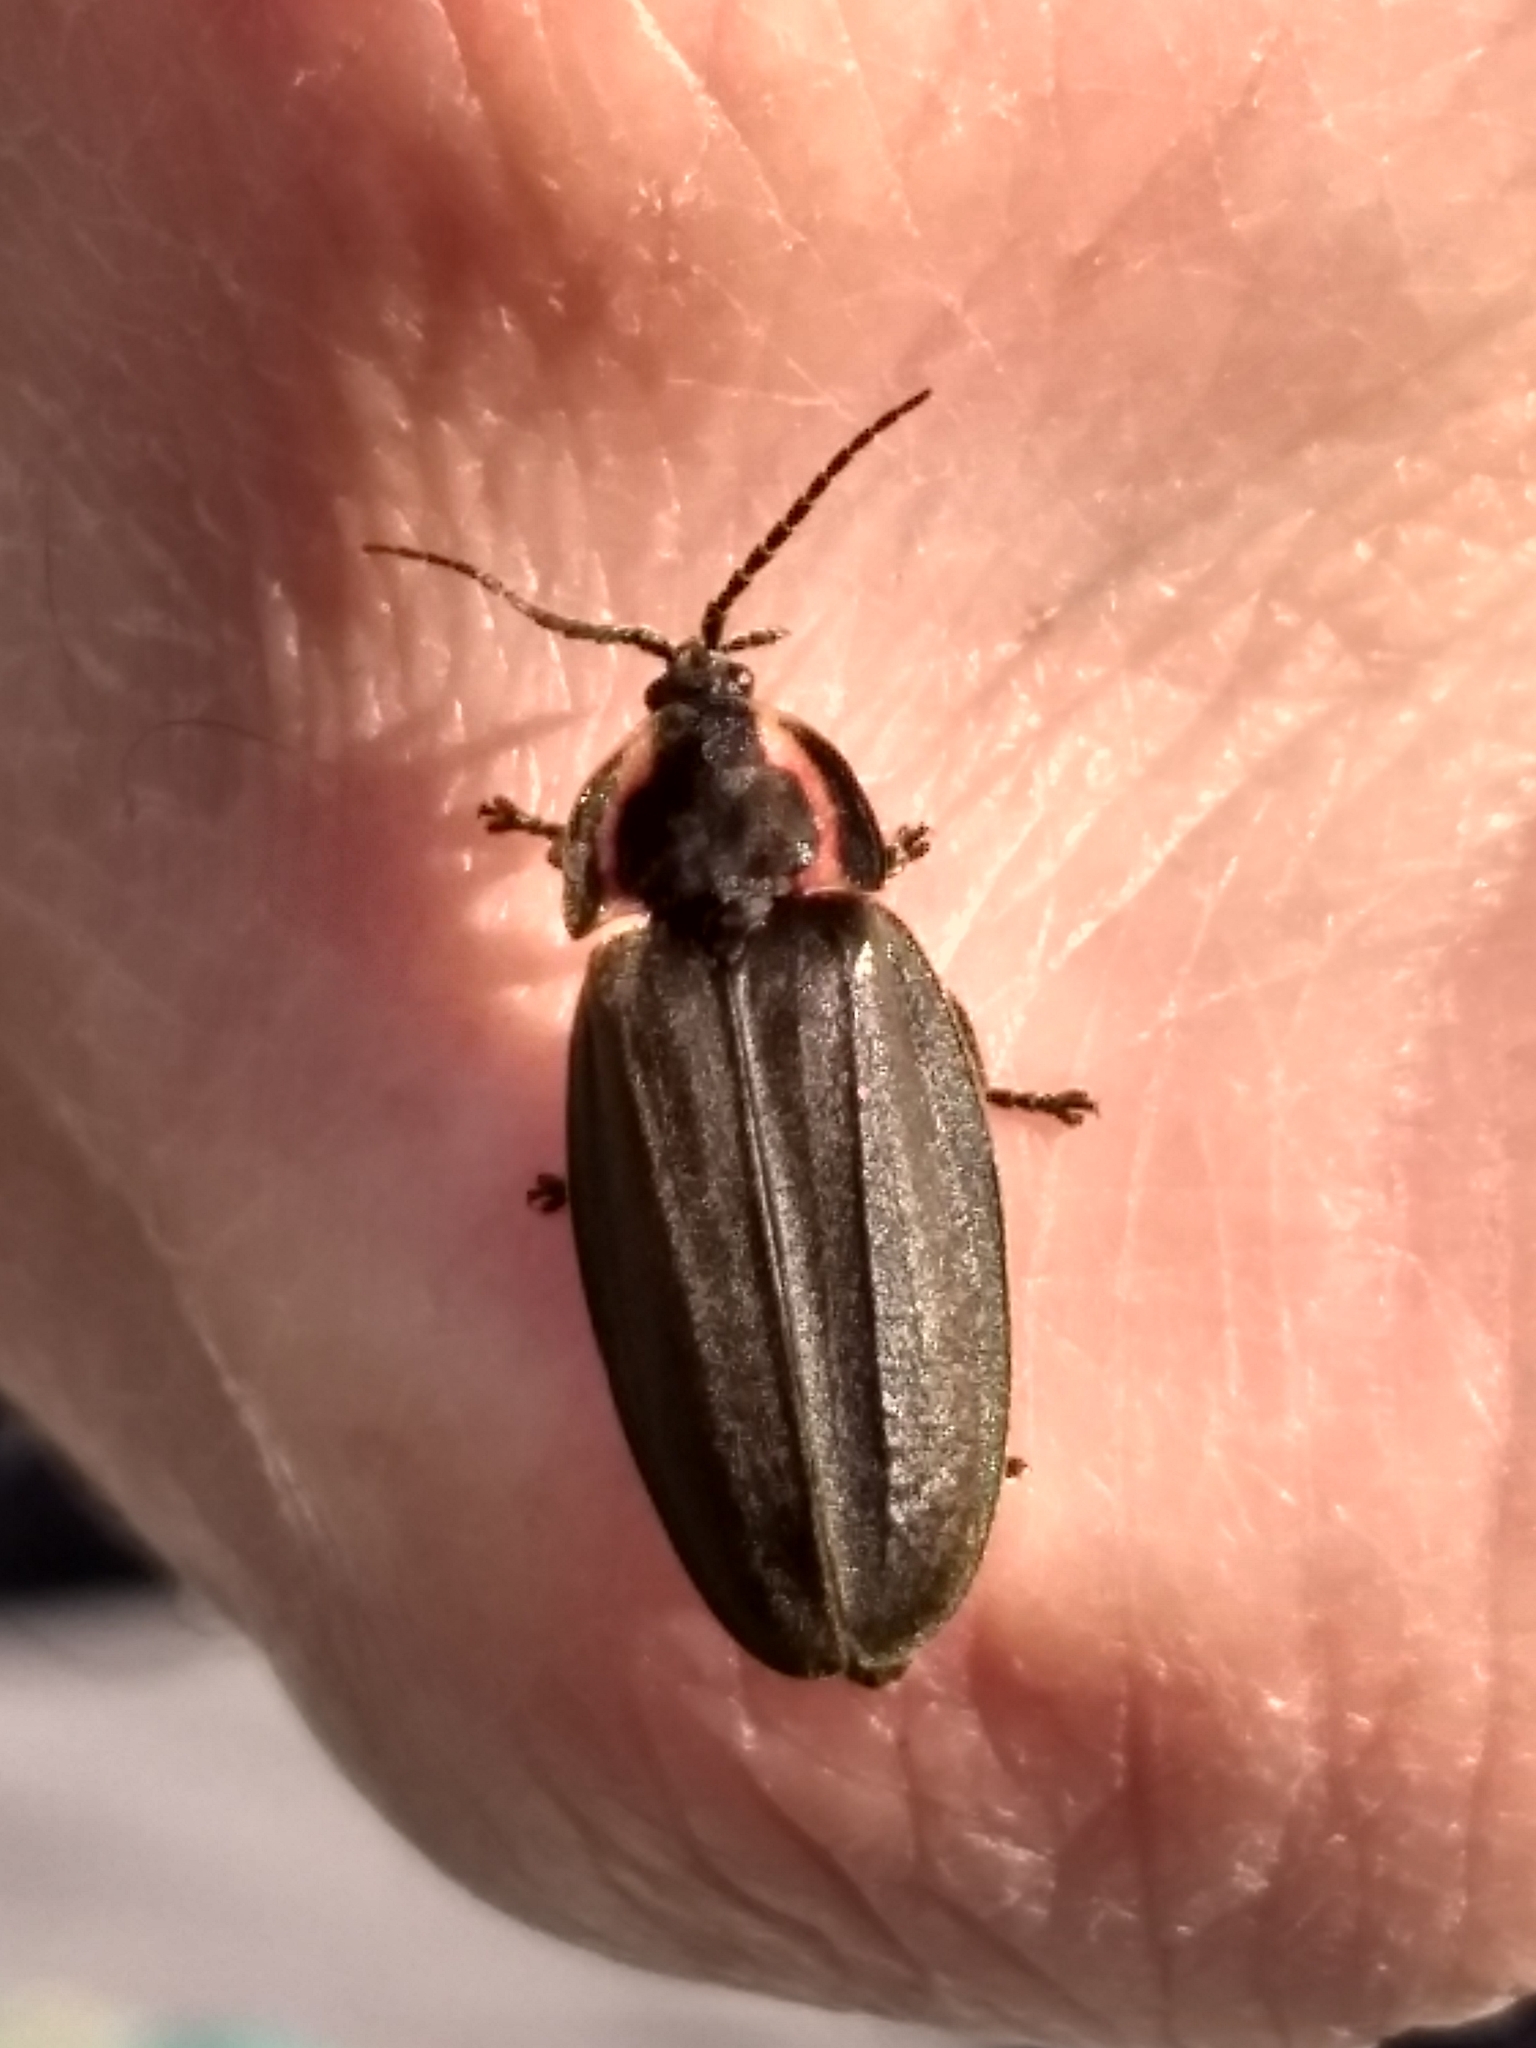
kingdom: Animalia
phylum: Arthropoda
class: Insecta
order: Coleoptera
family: Lampyridae
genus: Photinus
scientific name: Photinus corrusca
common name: Winter firefly
